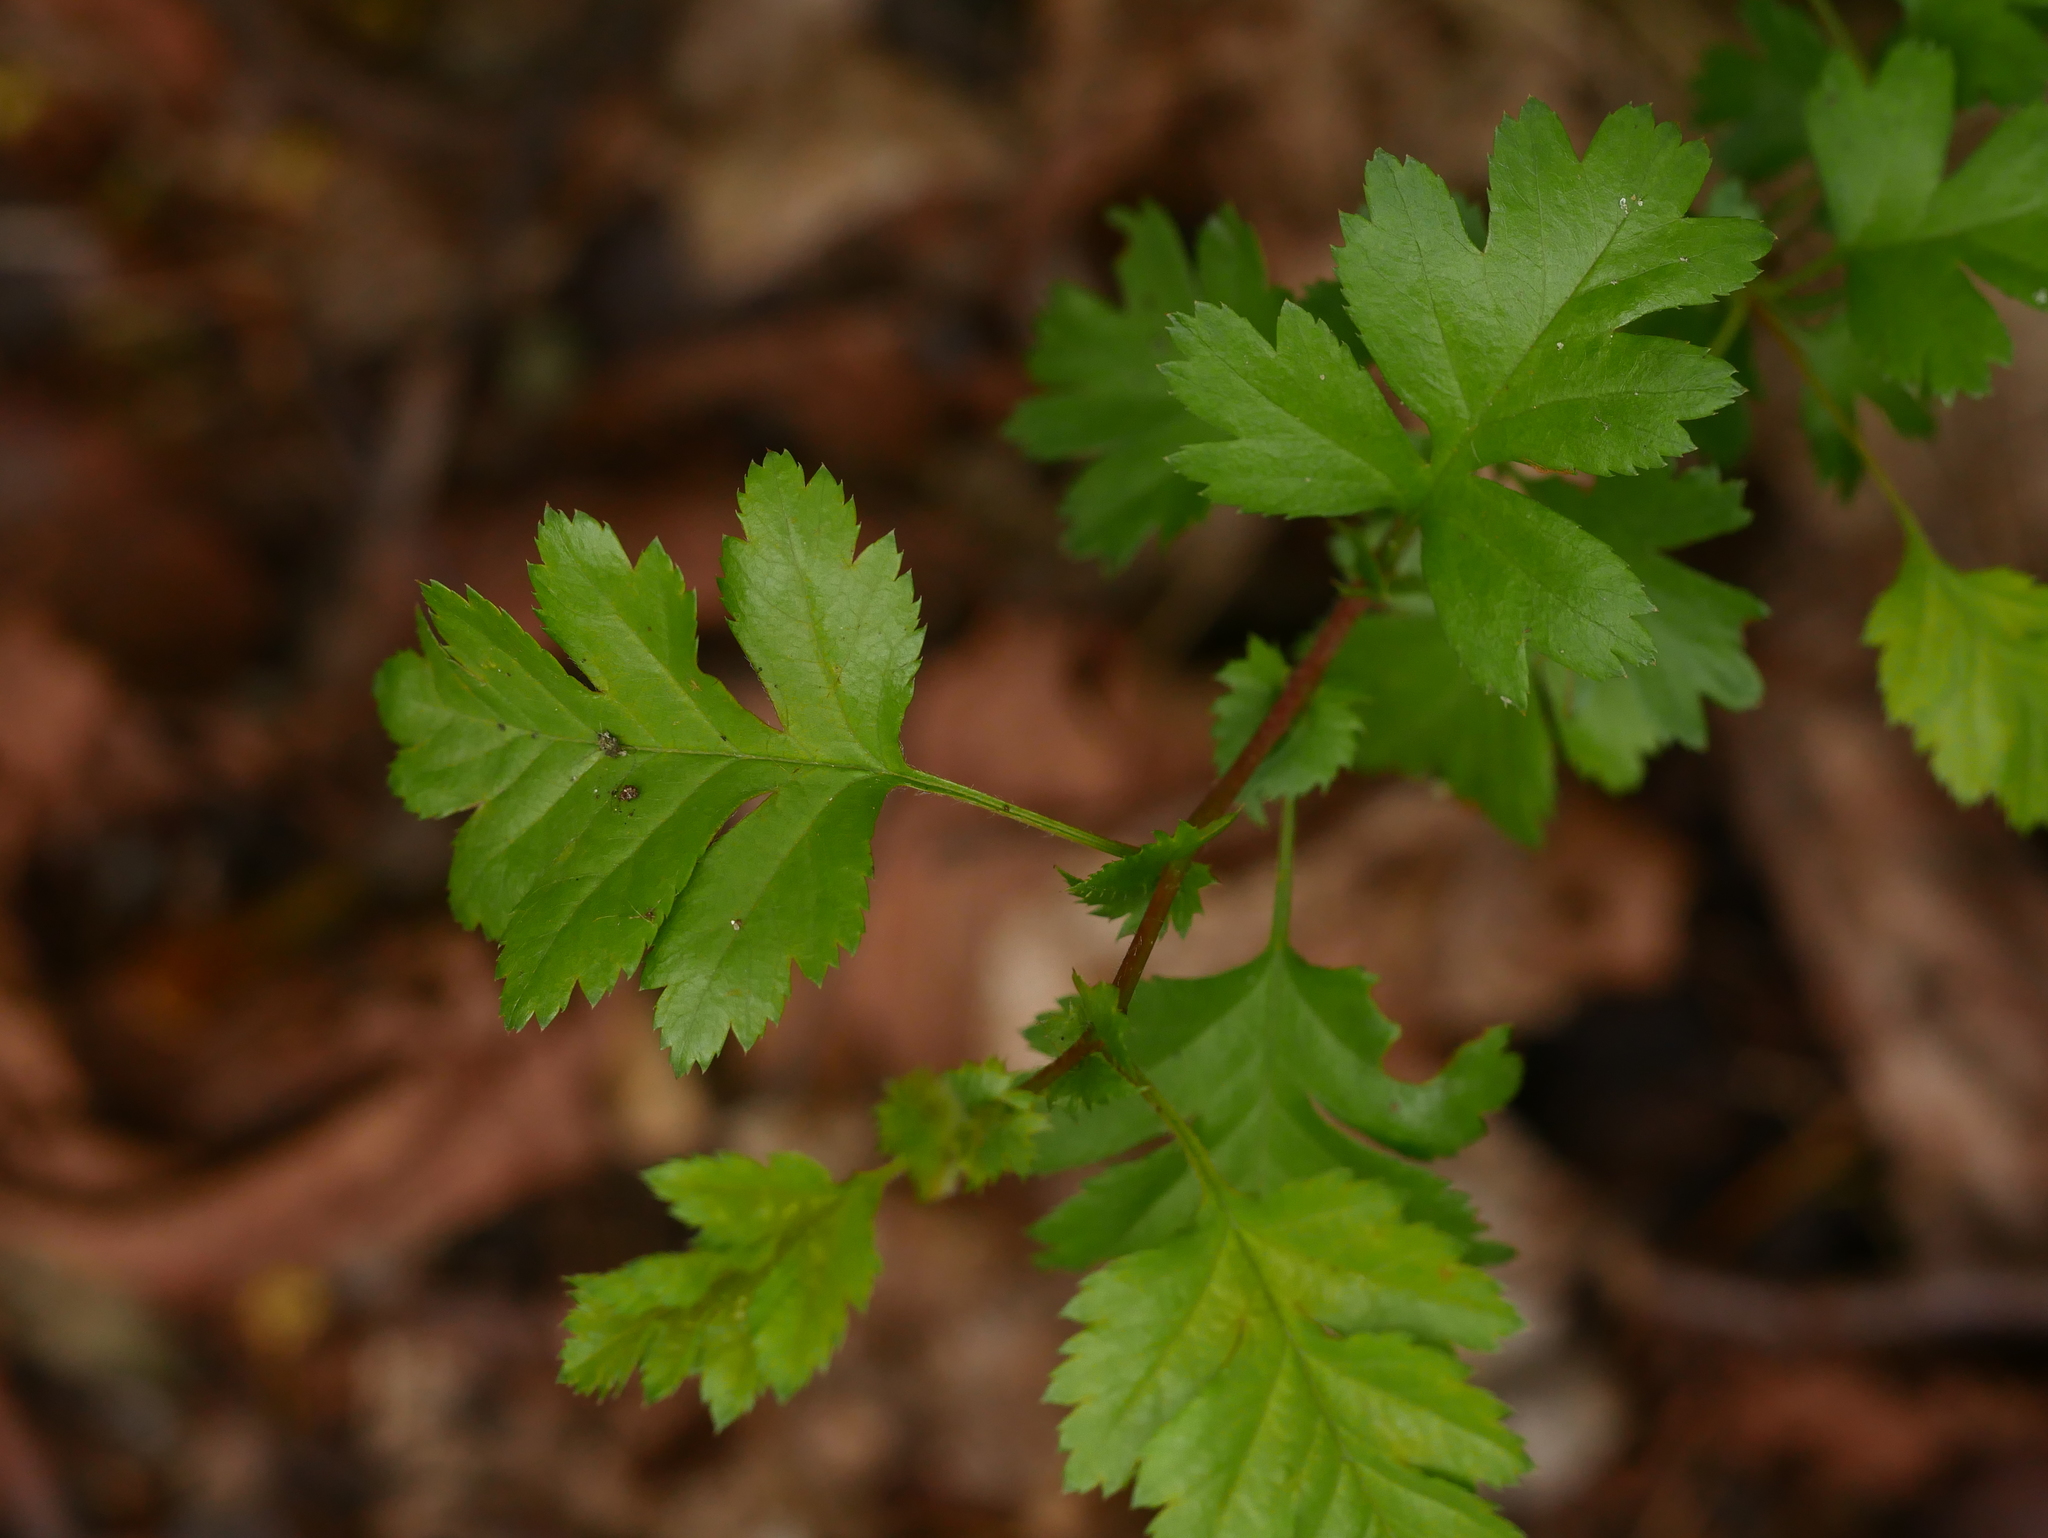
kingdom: Plantae
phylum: Tracheophyta
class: Magnoliopsida
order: Rosales
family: Rosaceae
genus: Crataegus
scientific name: Crataegus monogyna
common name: Hawthorn
